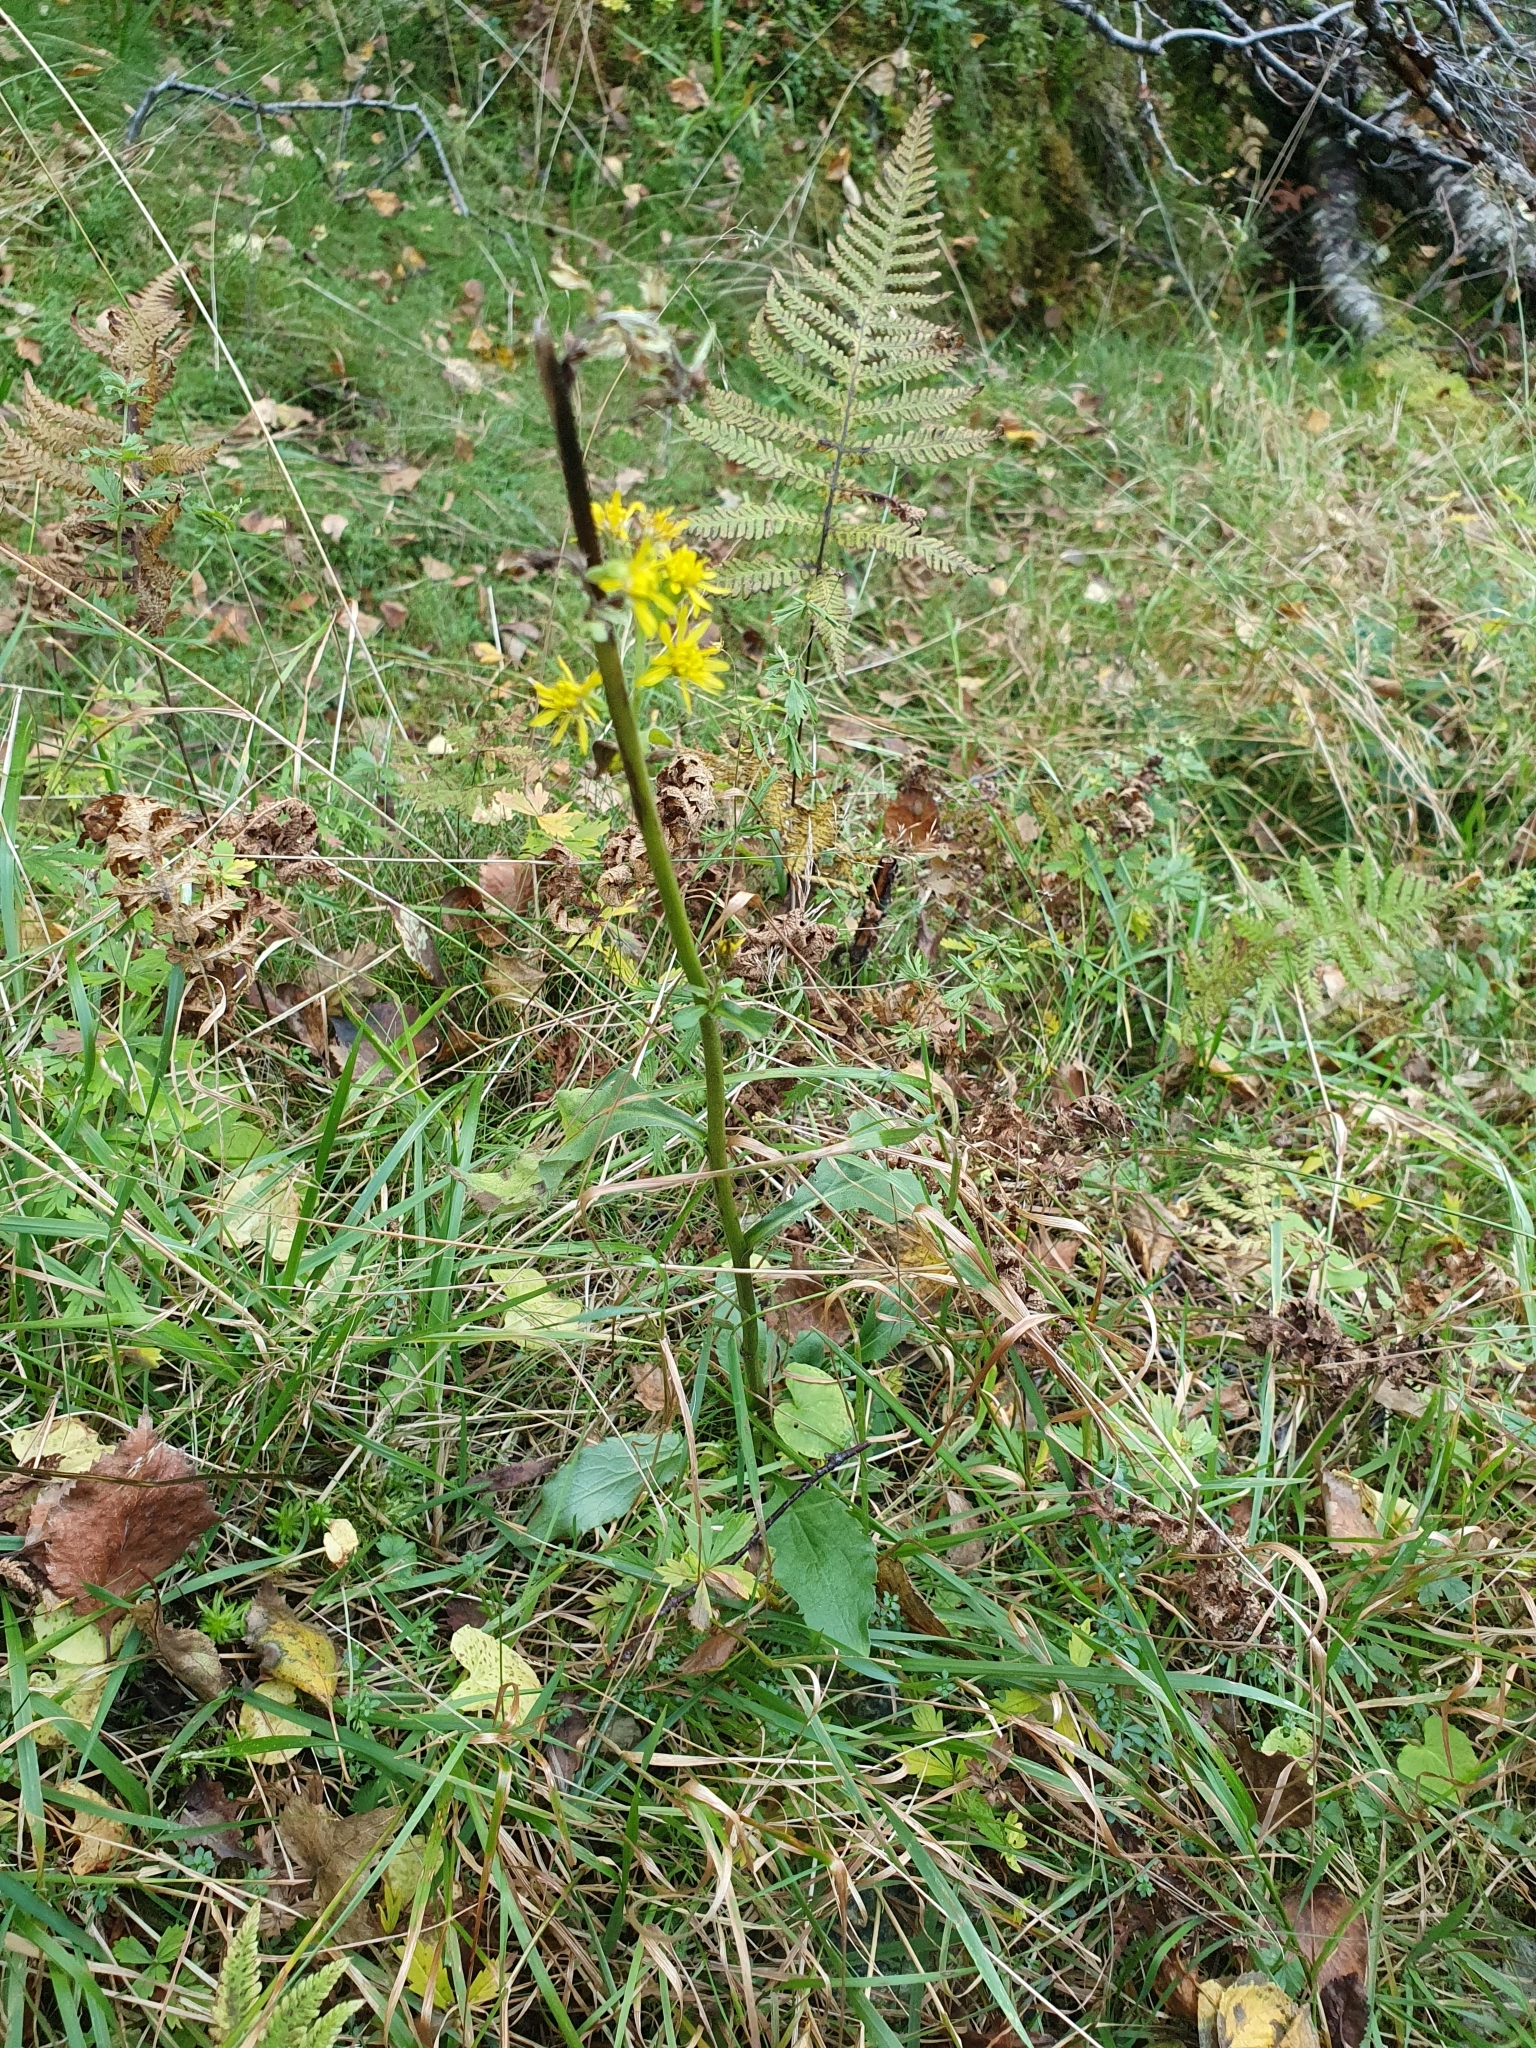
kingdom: Plantae
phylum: Tracheophyta
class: Magnoliopsida
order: Asterales
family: Asteraceae
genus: Solidago
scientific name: Solidago virgaurea
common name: Goldenrod
